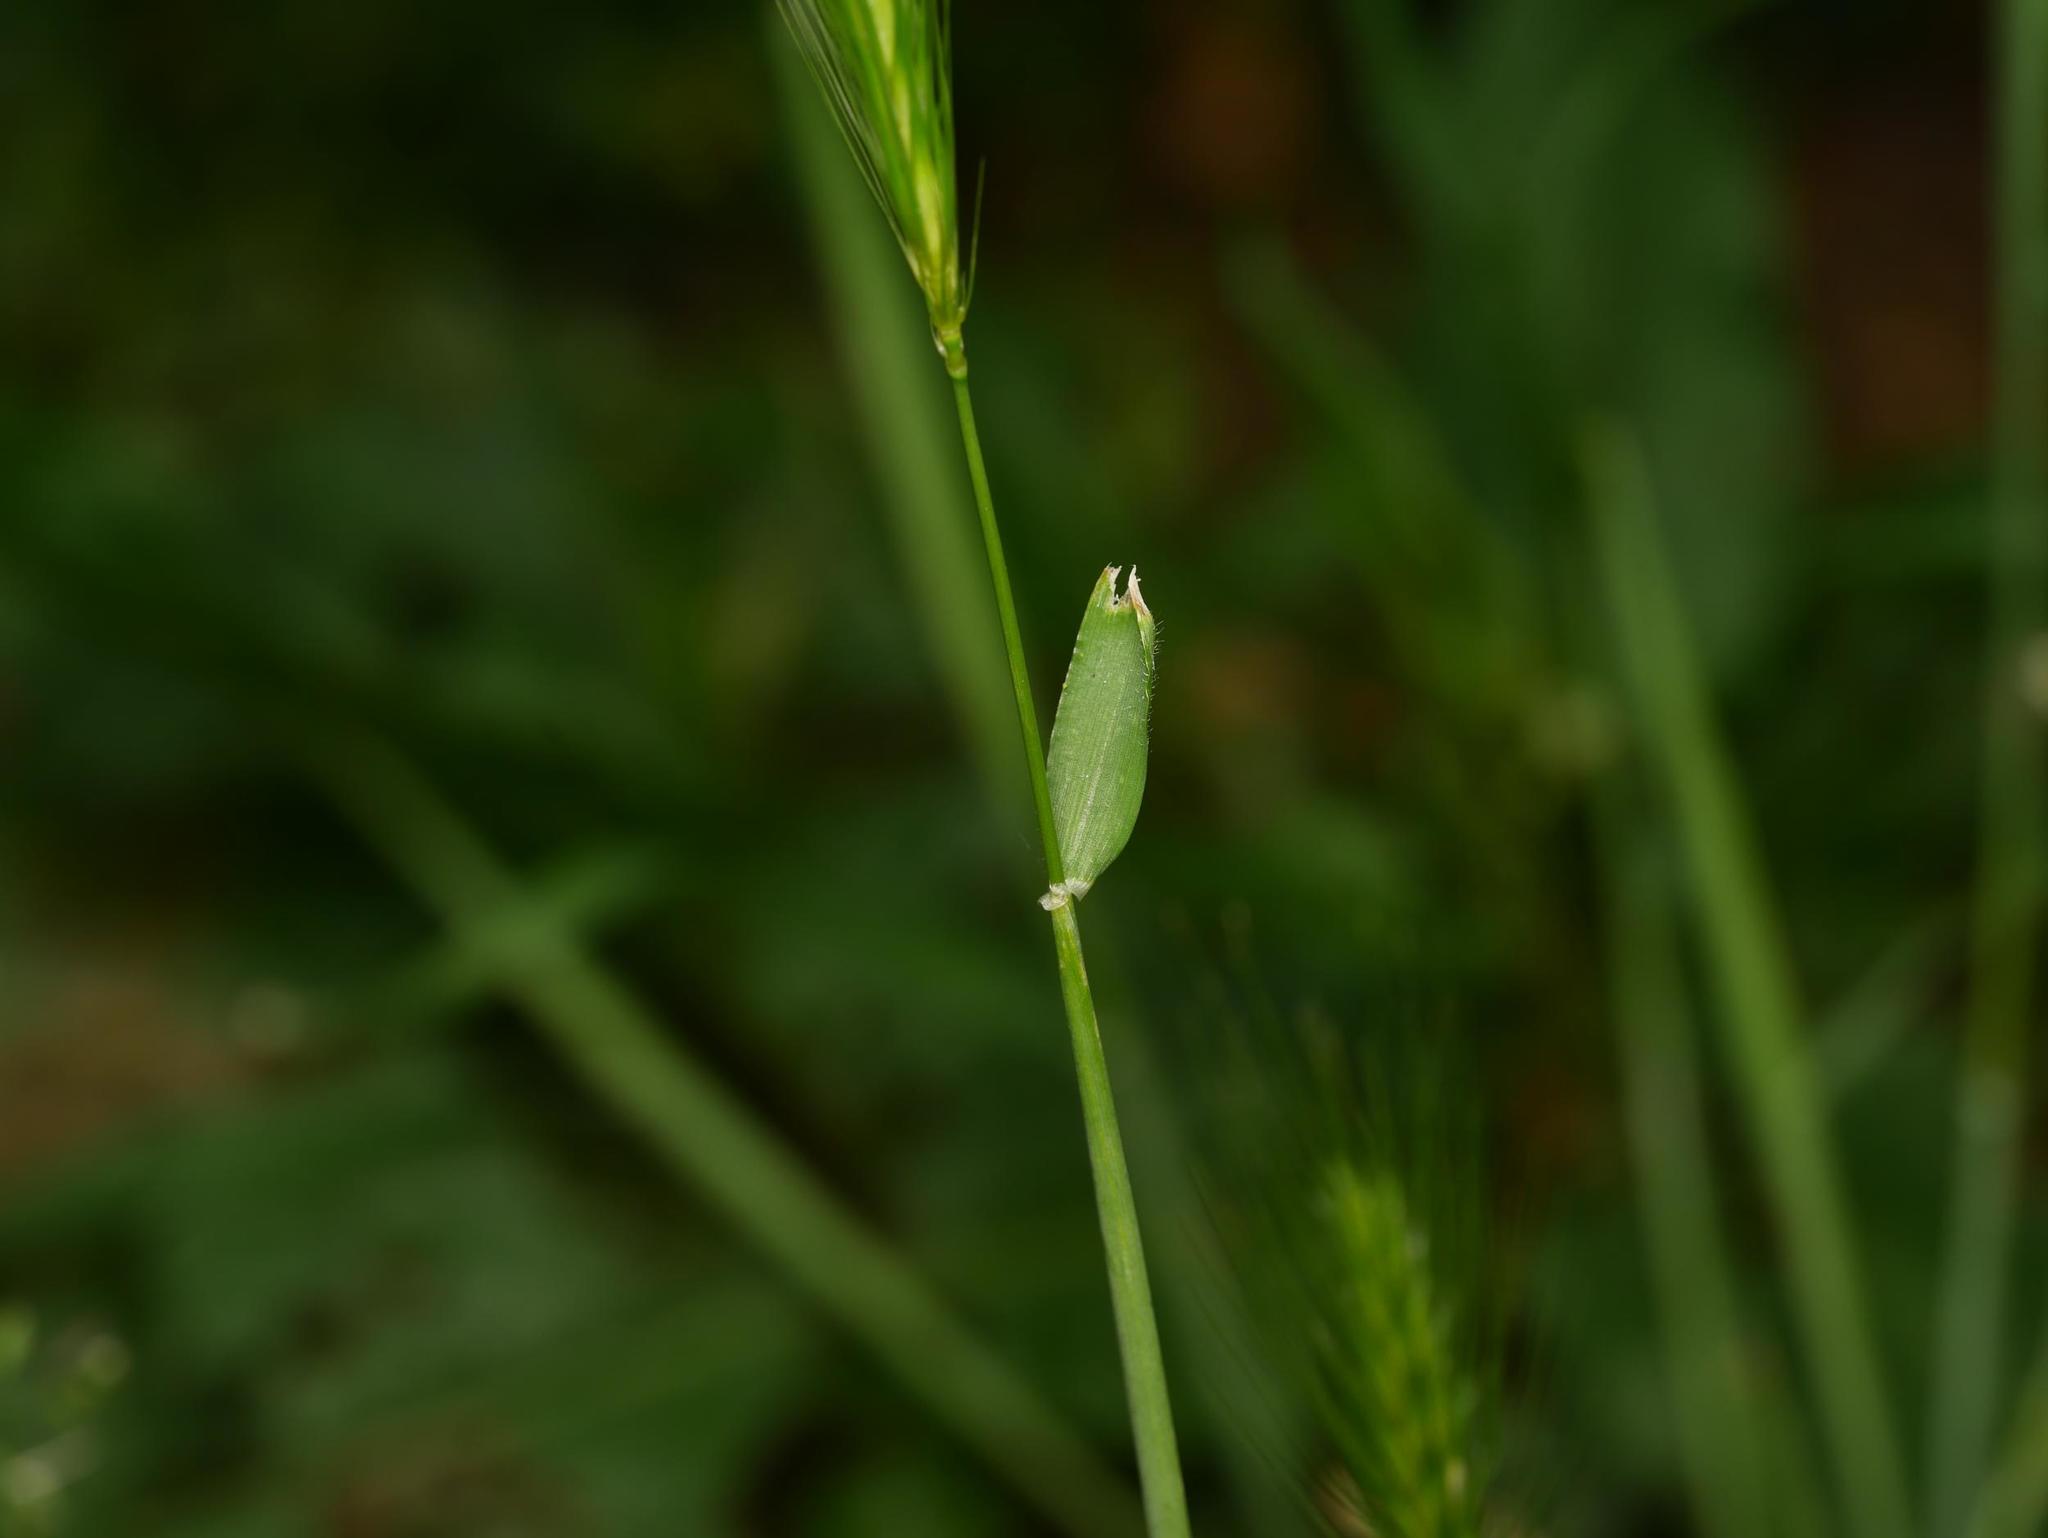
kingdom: Plantae
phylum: Tracheophyta
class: Liliopsida
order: Poales
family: Poaceae
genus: Hordeum
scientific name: Hordeum murinum
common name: Wall barley
